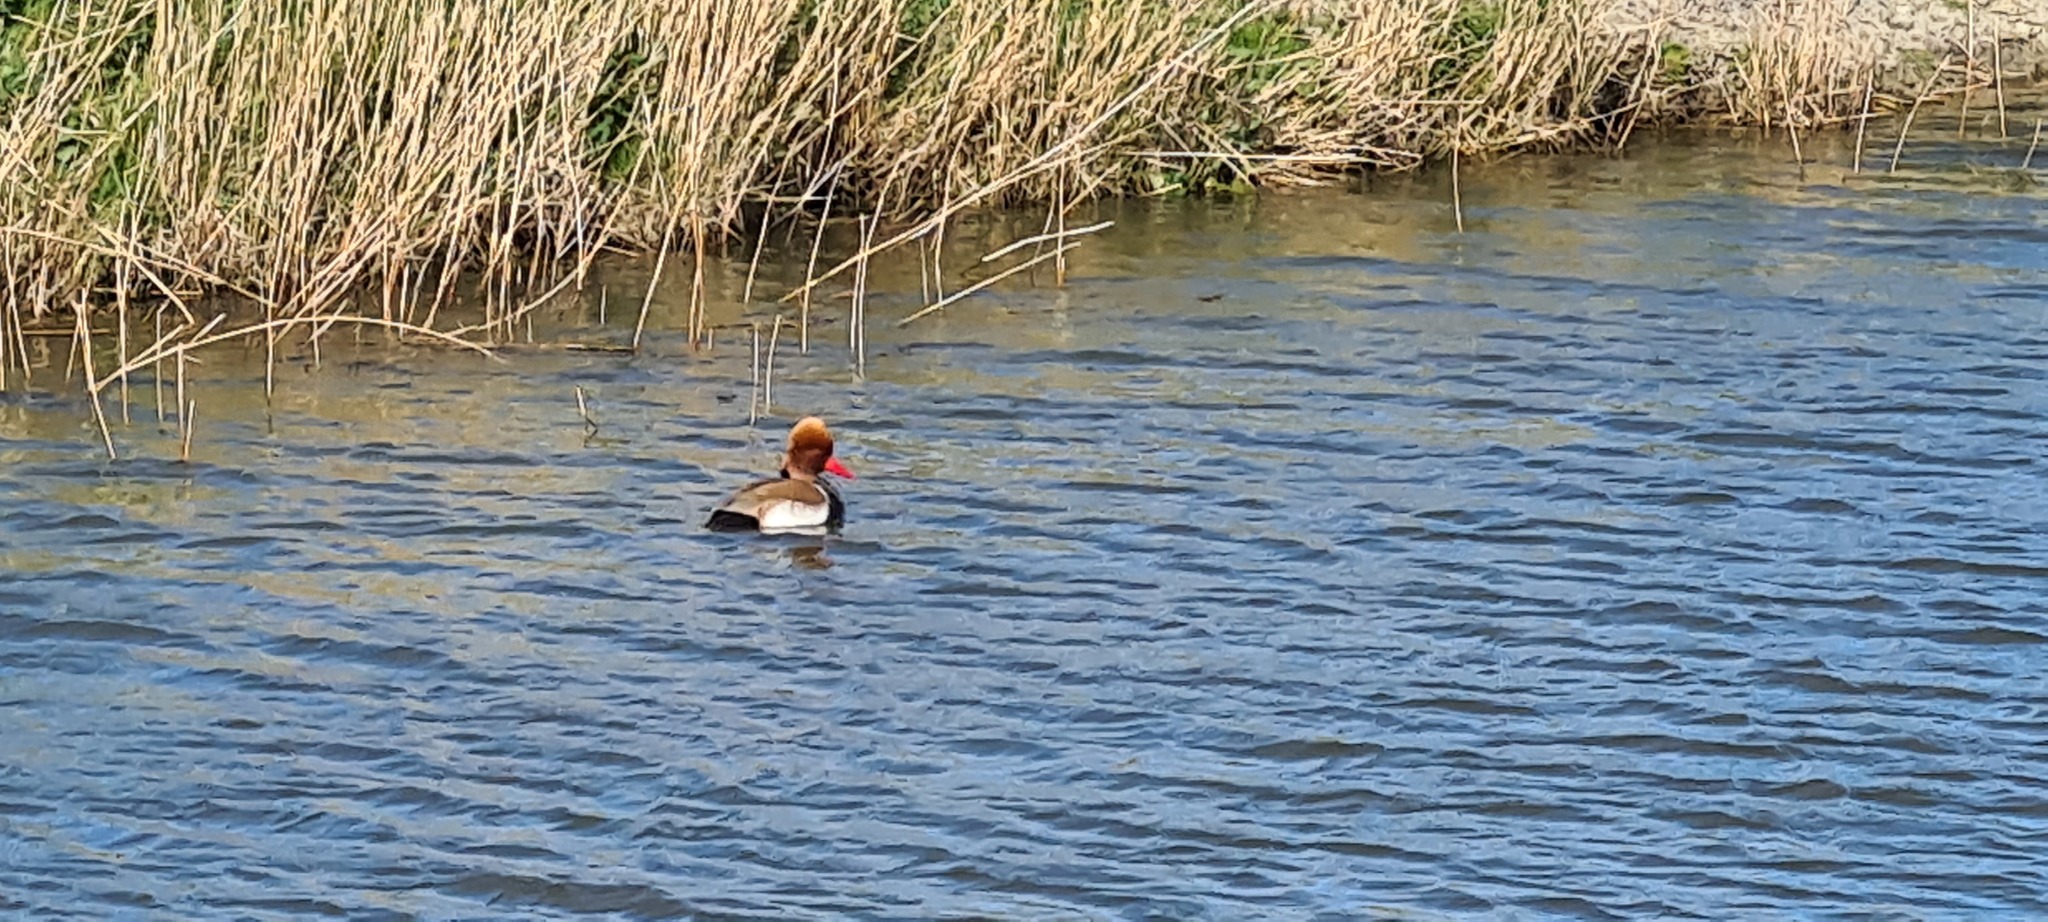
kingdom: Animalia
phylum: Chordata
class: Aves
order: Anseriformes
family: Anatidae
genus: Netta
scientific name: Netta rufina
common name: Red-crested pochard
